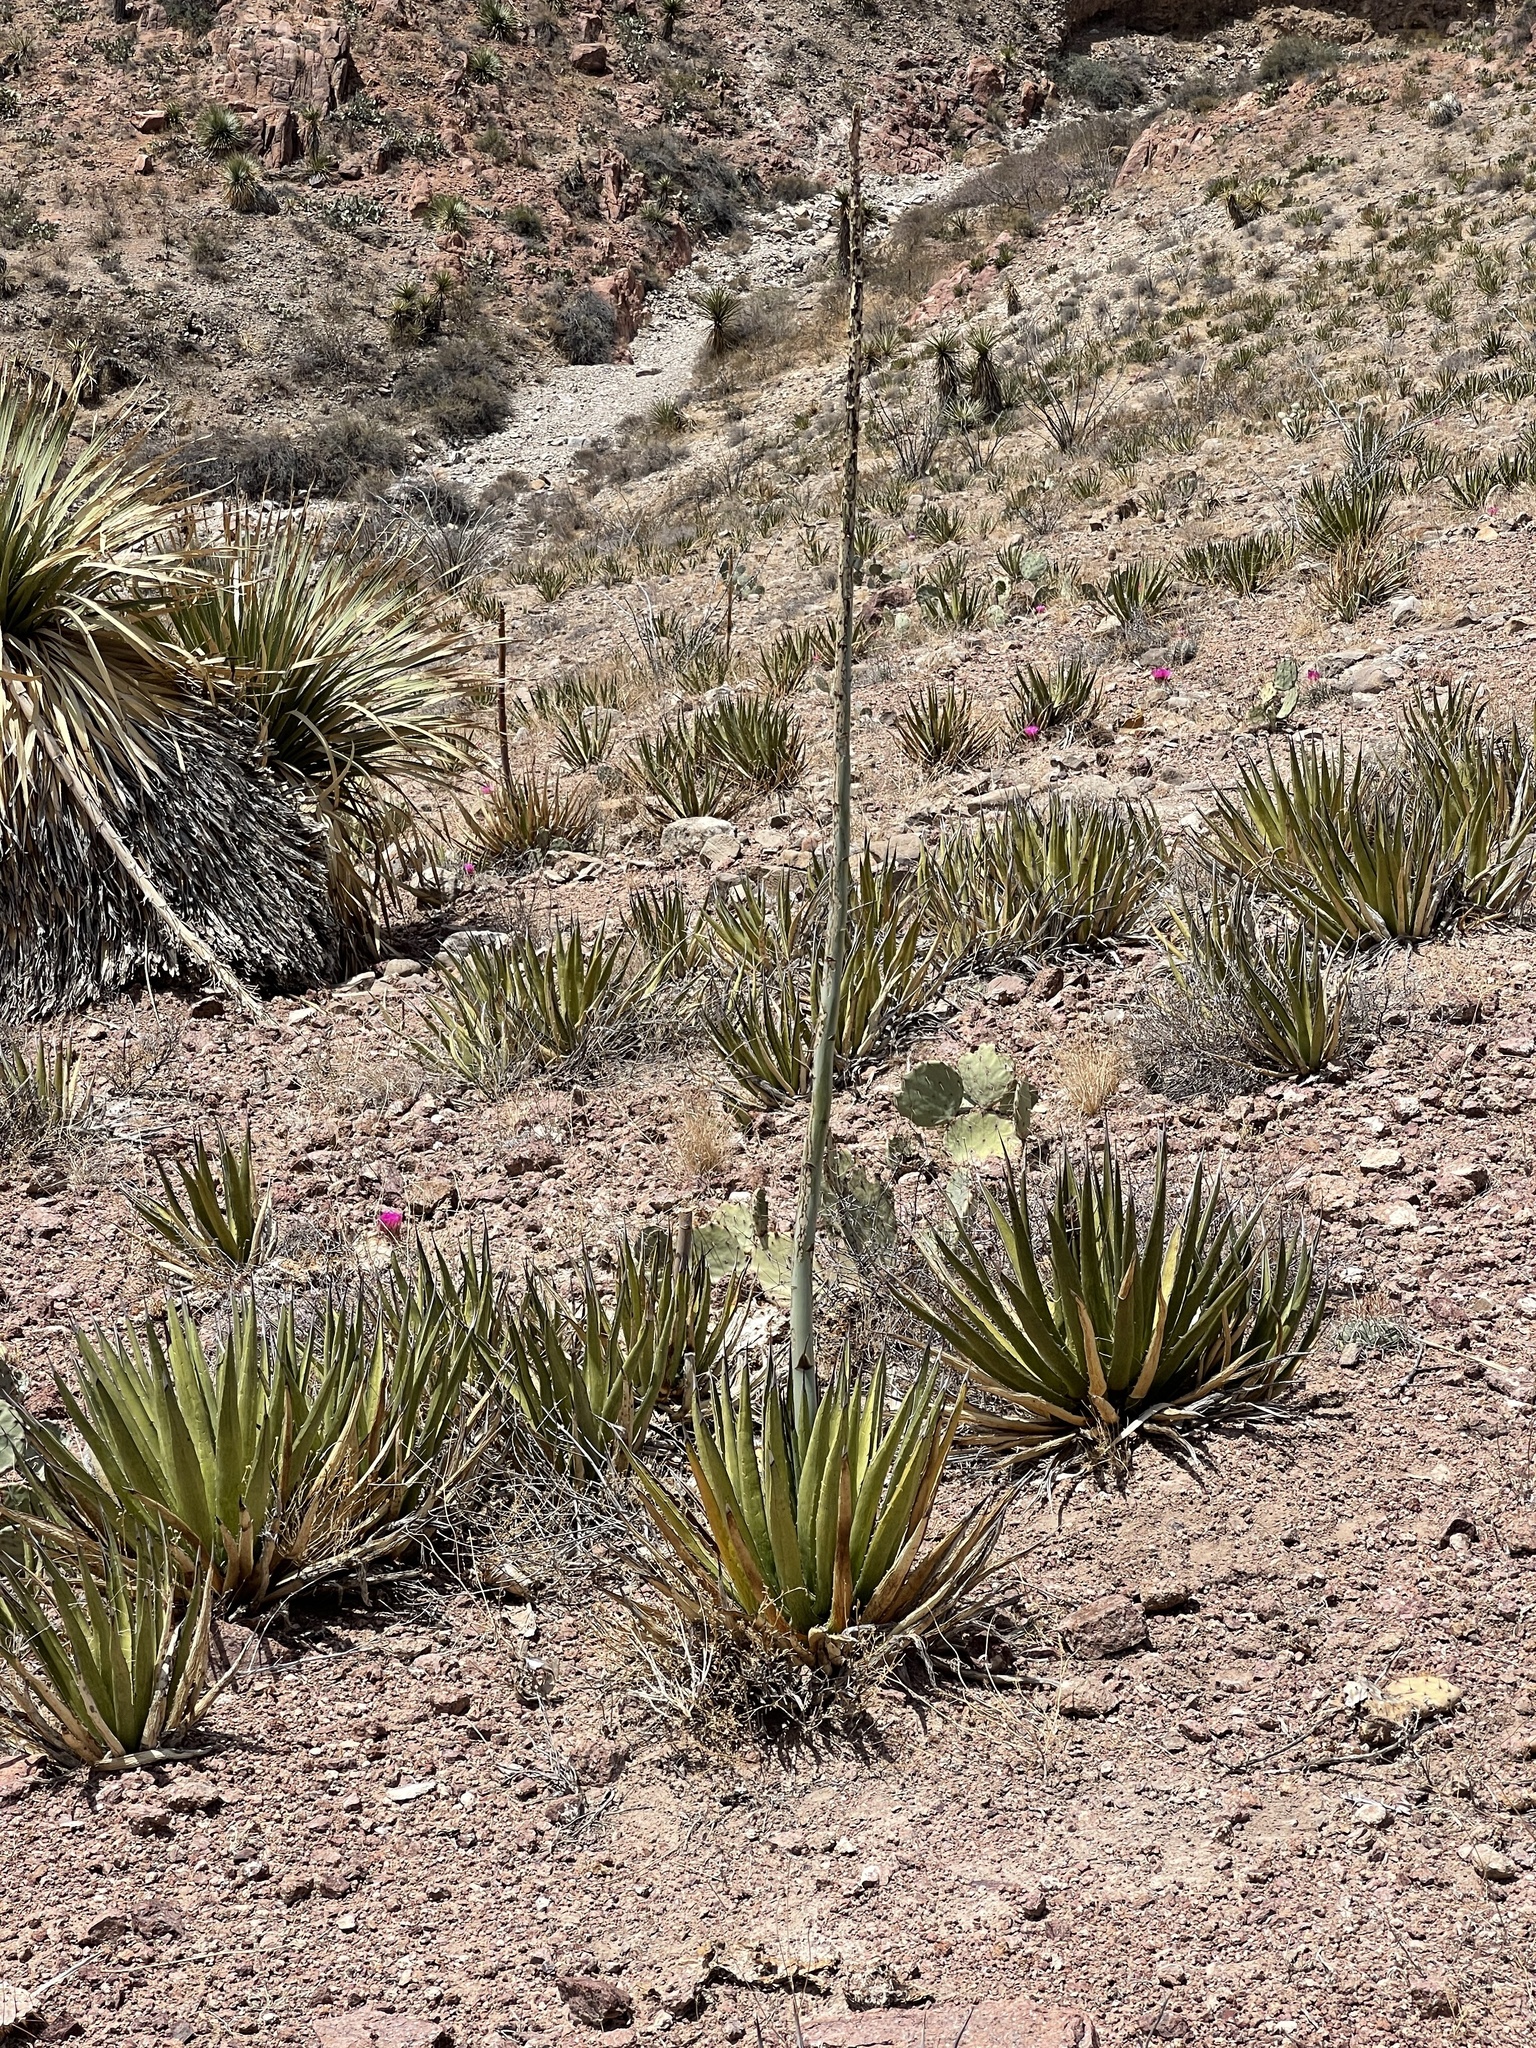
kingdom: Plantae
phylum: Tracheophyta
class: Liliopsida
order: Asparagales
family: Asparagaceae
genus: Agave
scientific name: Agave lechuguilla
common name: Lecheguilla agave
